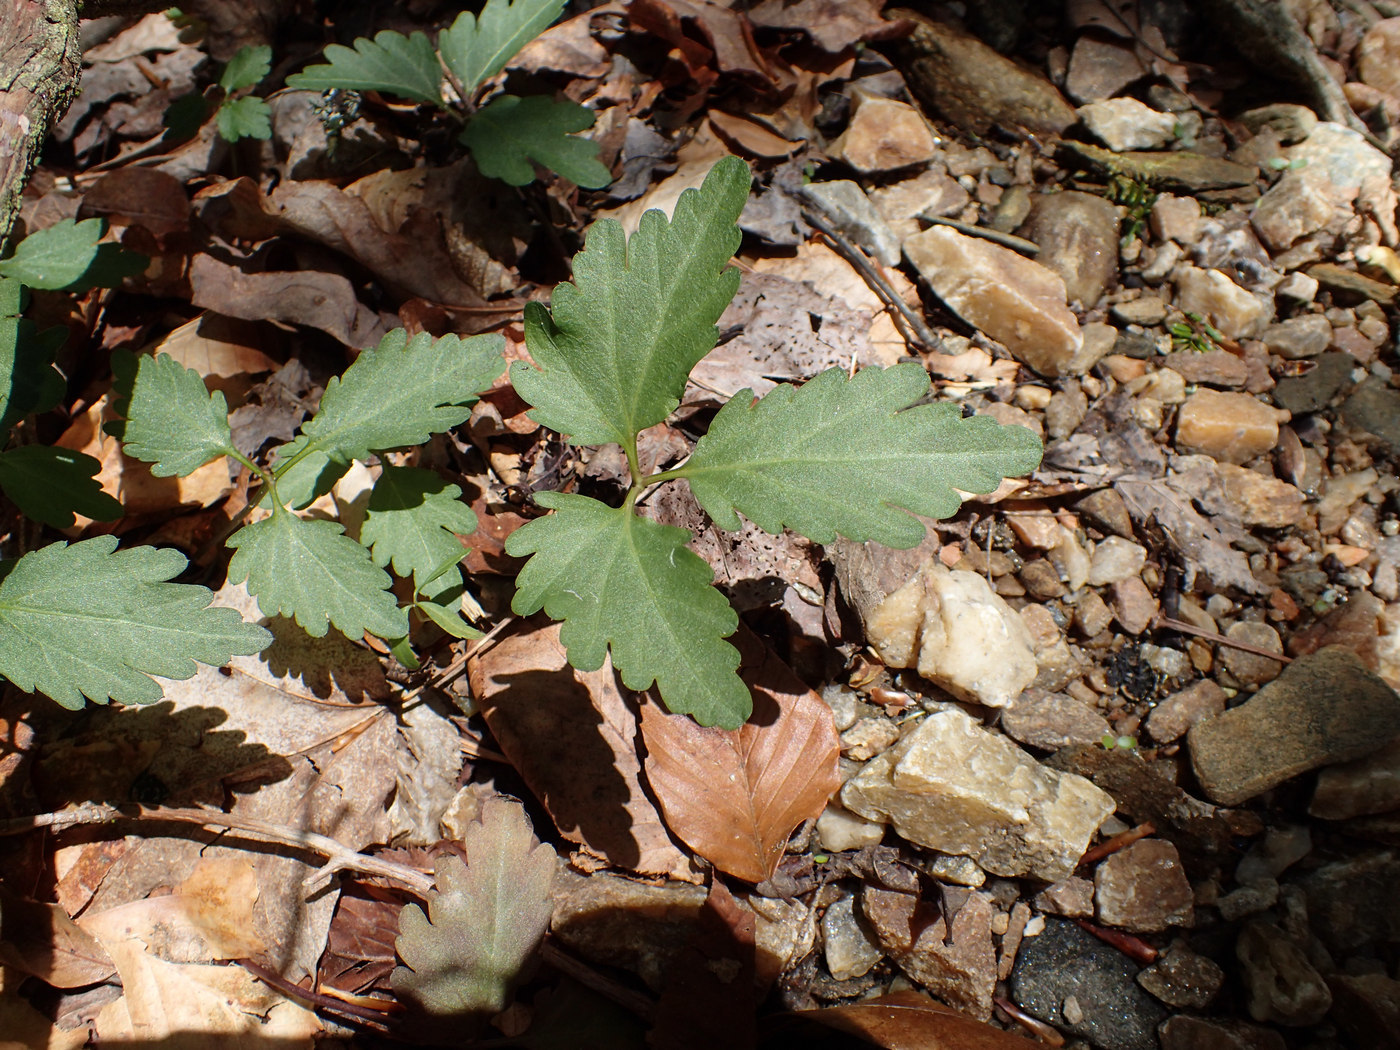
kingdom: Plantae
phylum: Tracheophyta
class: Magnoliopsida
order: Brassicales
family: Brassicaceae
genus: Cardamine
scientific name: Cardamine diphylla
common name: Broad-leaved toothwort
